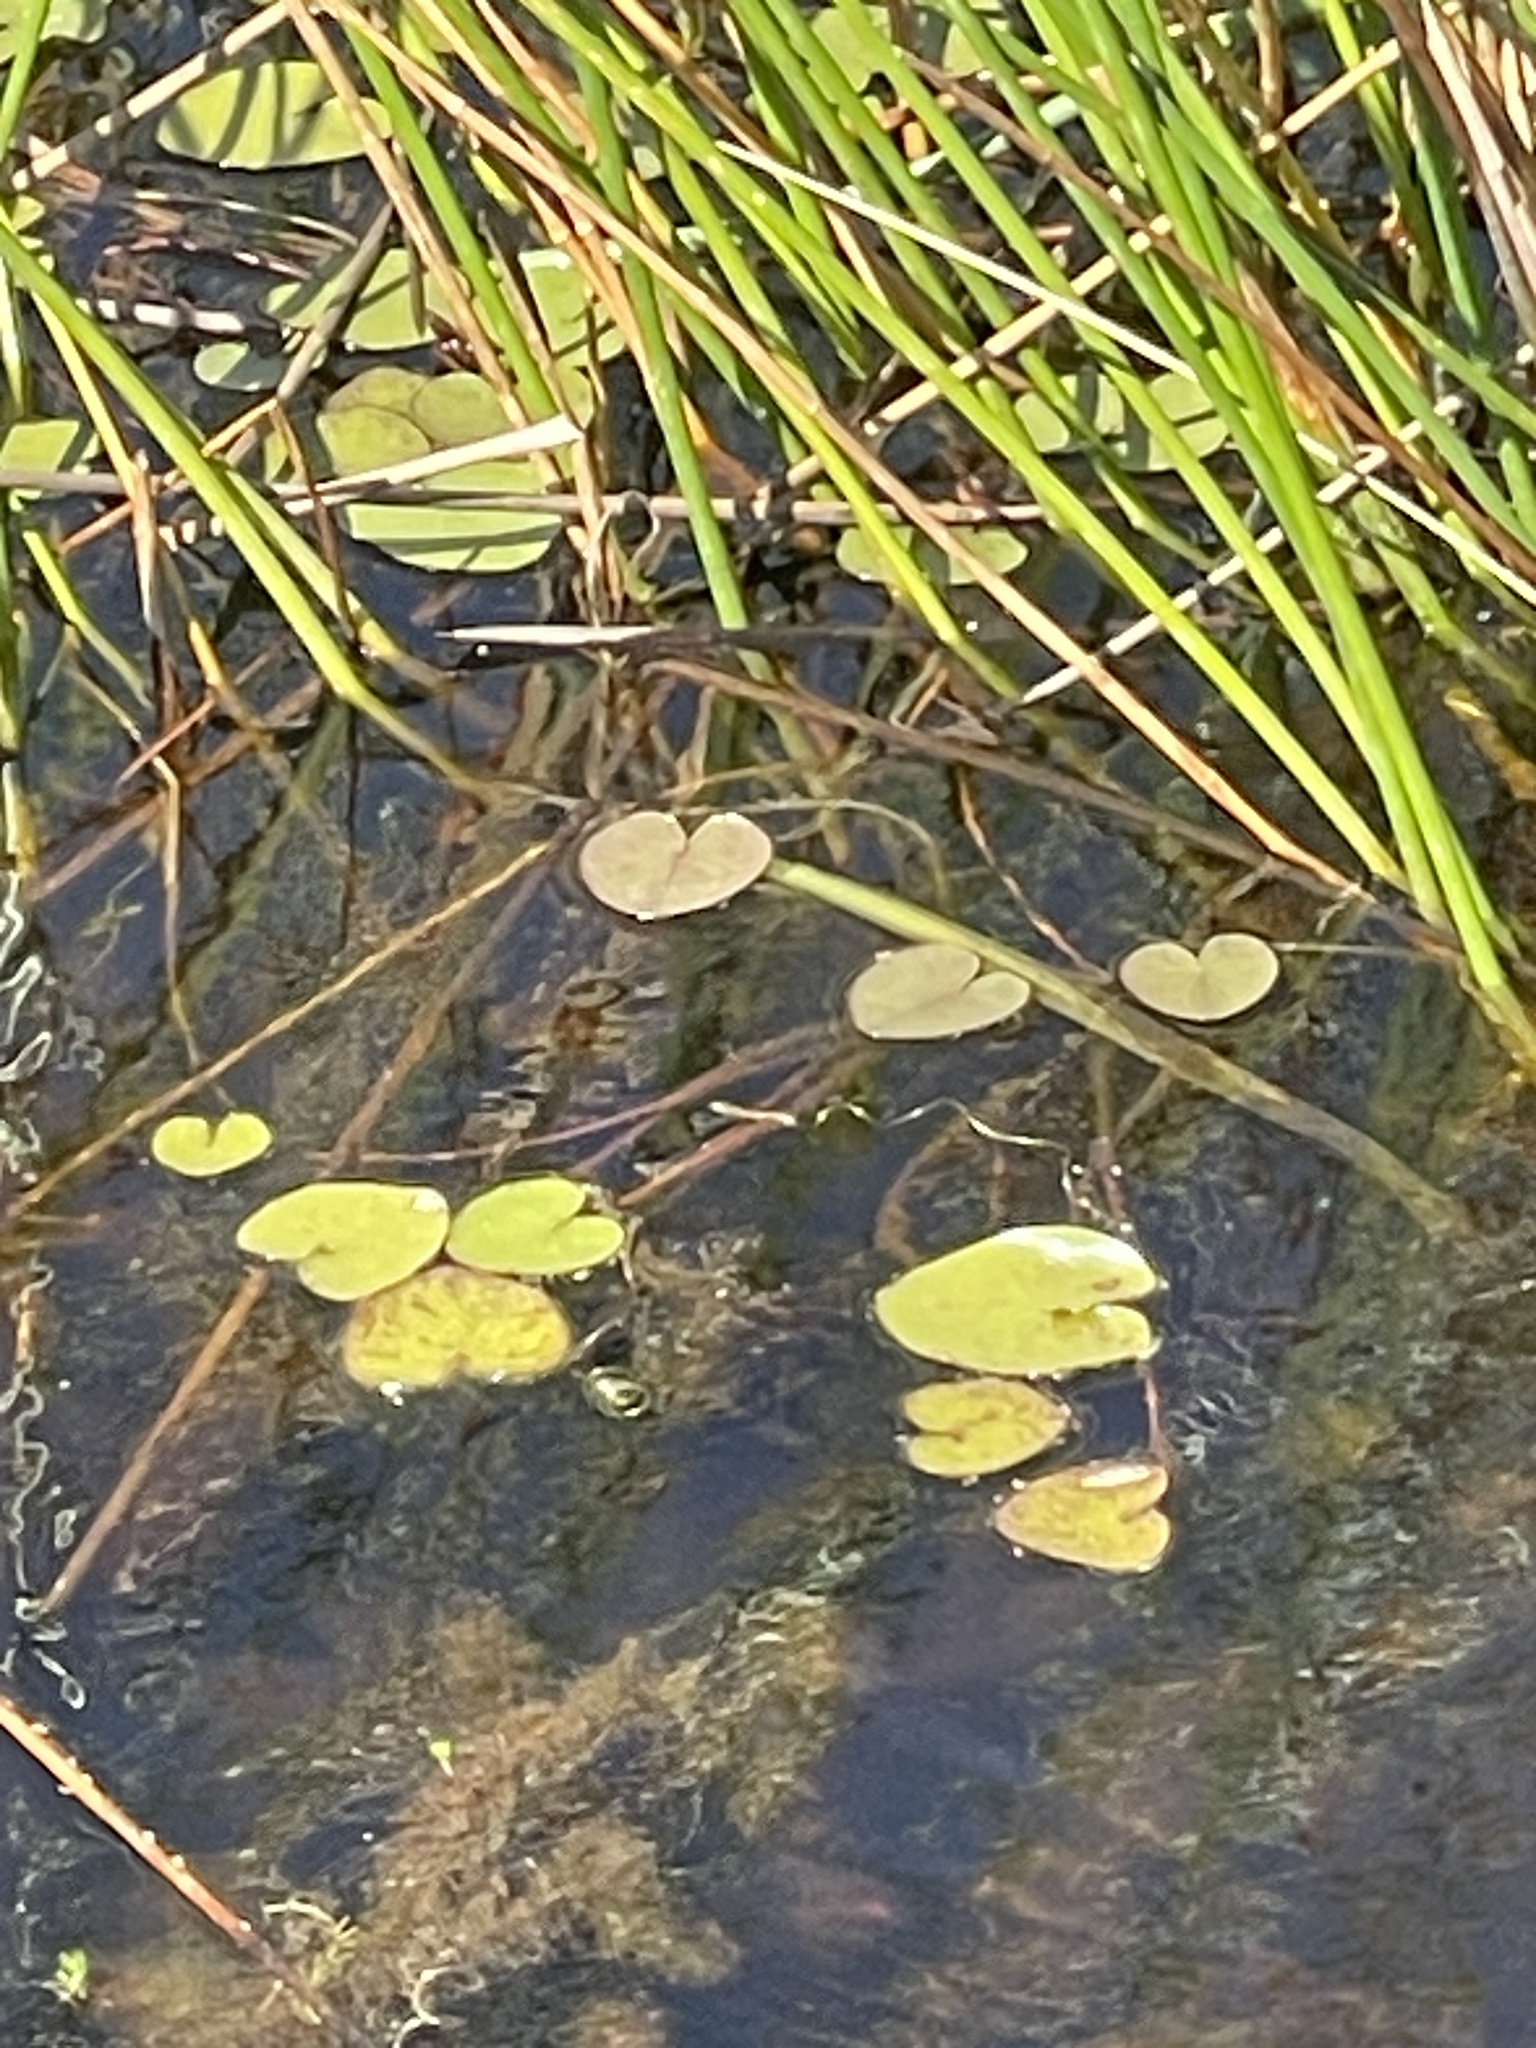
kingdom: Plantae
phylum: Tracheophyta
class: Magnoliopsida
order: Asterales
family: Menyanthaceae
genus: Ornduffia
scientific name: Ornduffia reniformis
